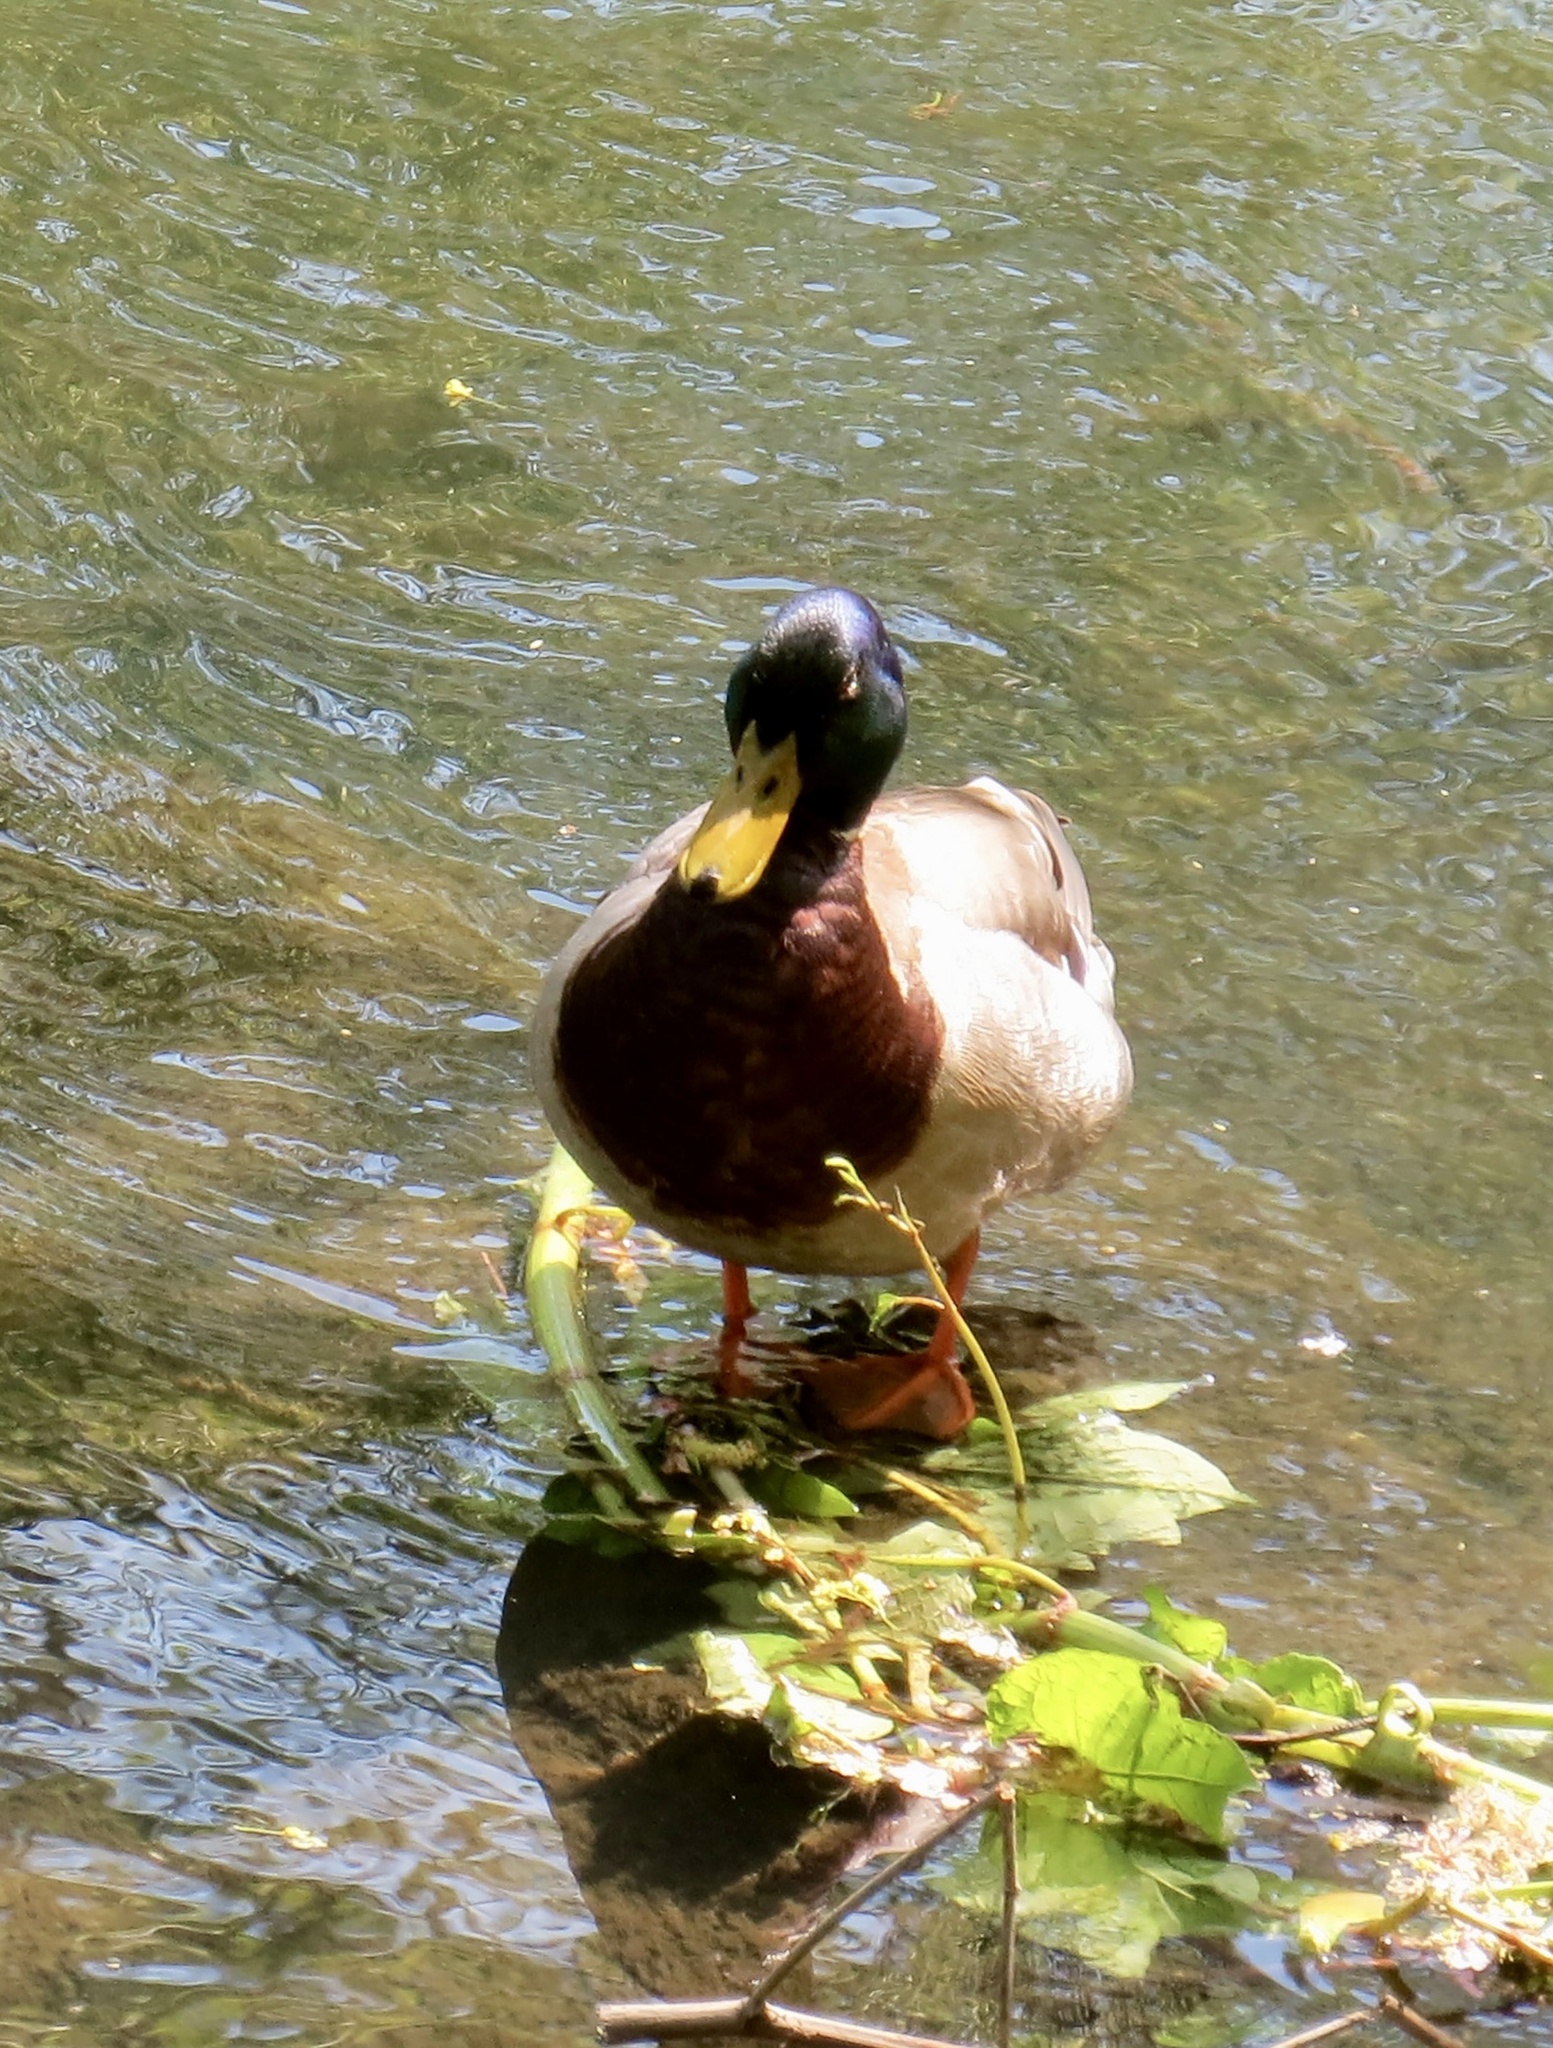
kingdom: Animalia
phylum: Chordata
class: Aves
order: Anseriformes
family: Anatidae
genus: Anas
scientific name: Anas platyrhynchos
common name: Mallard
